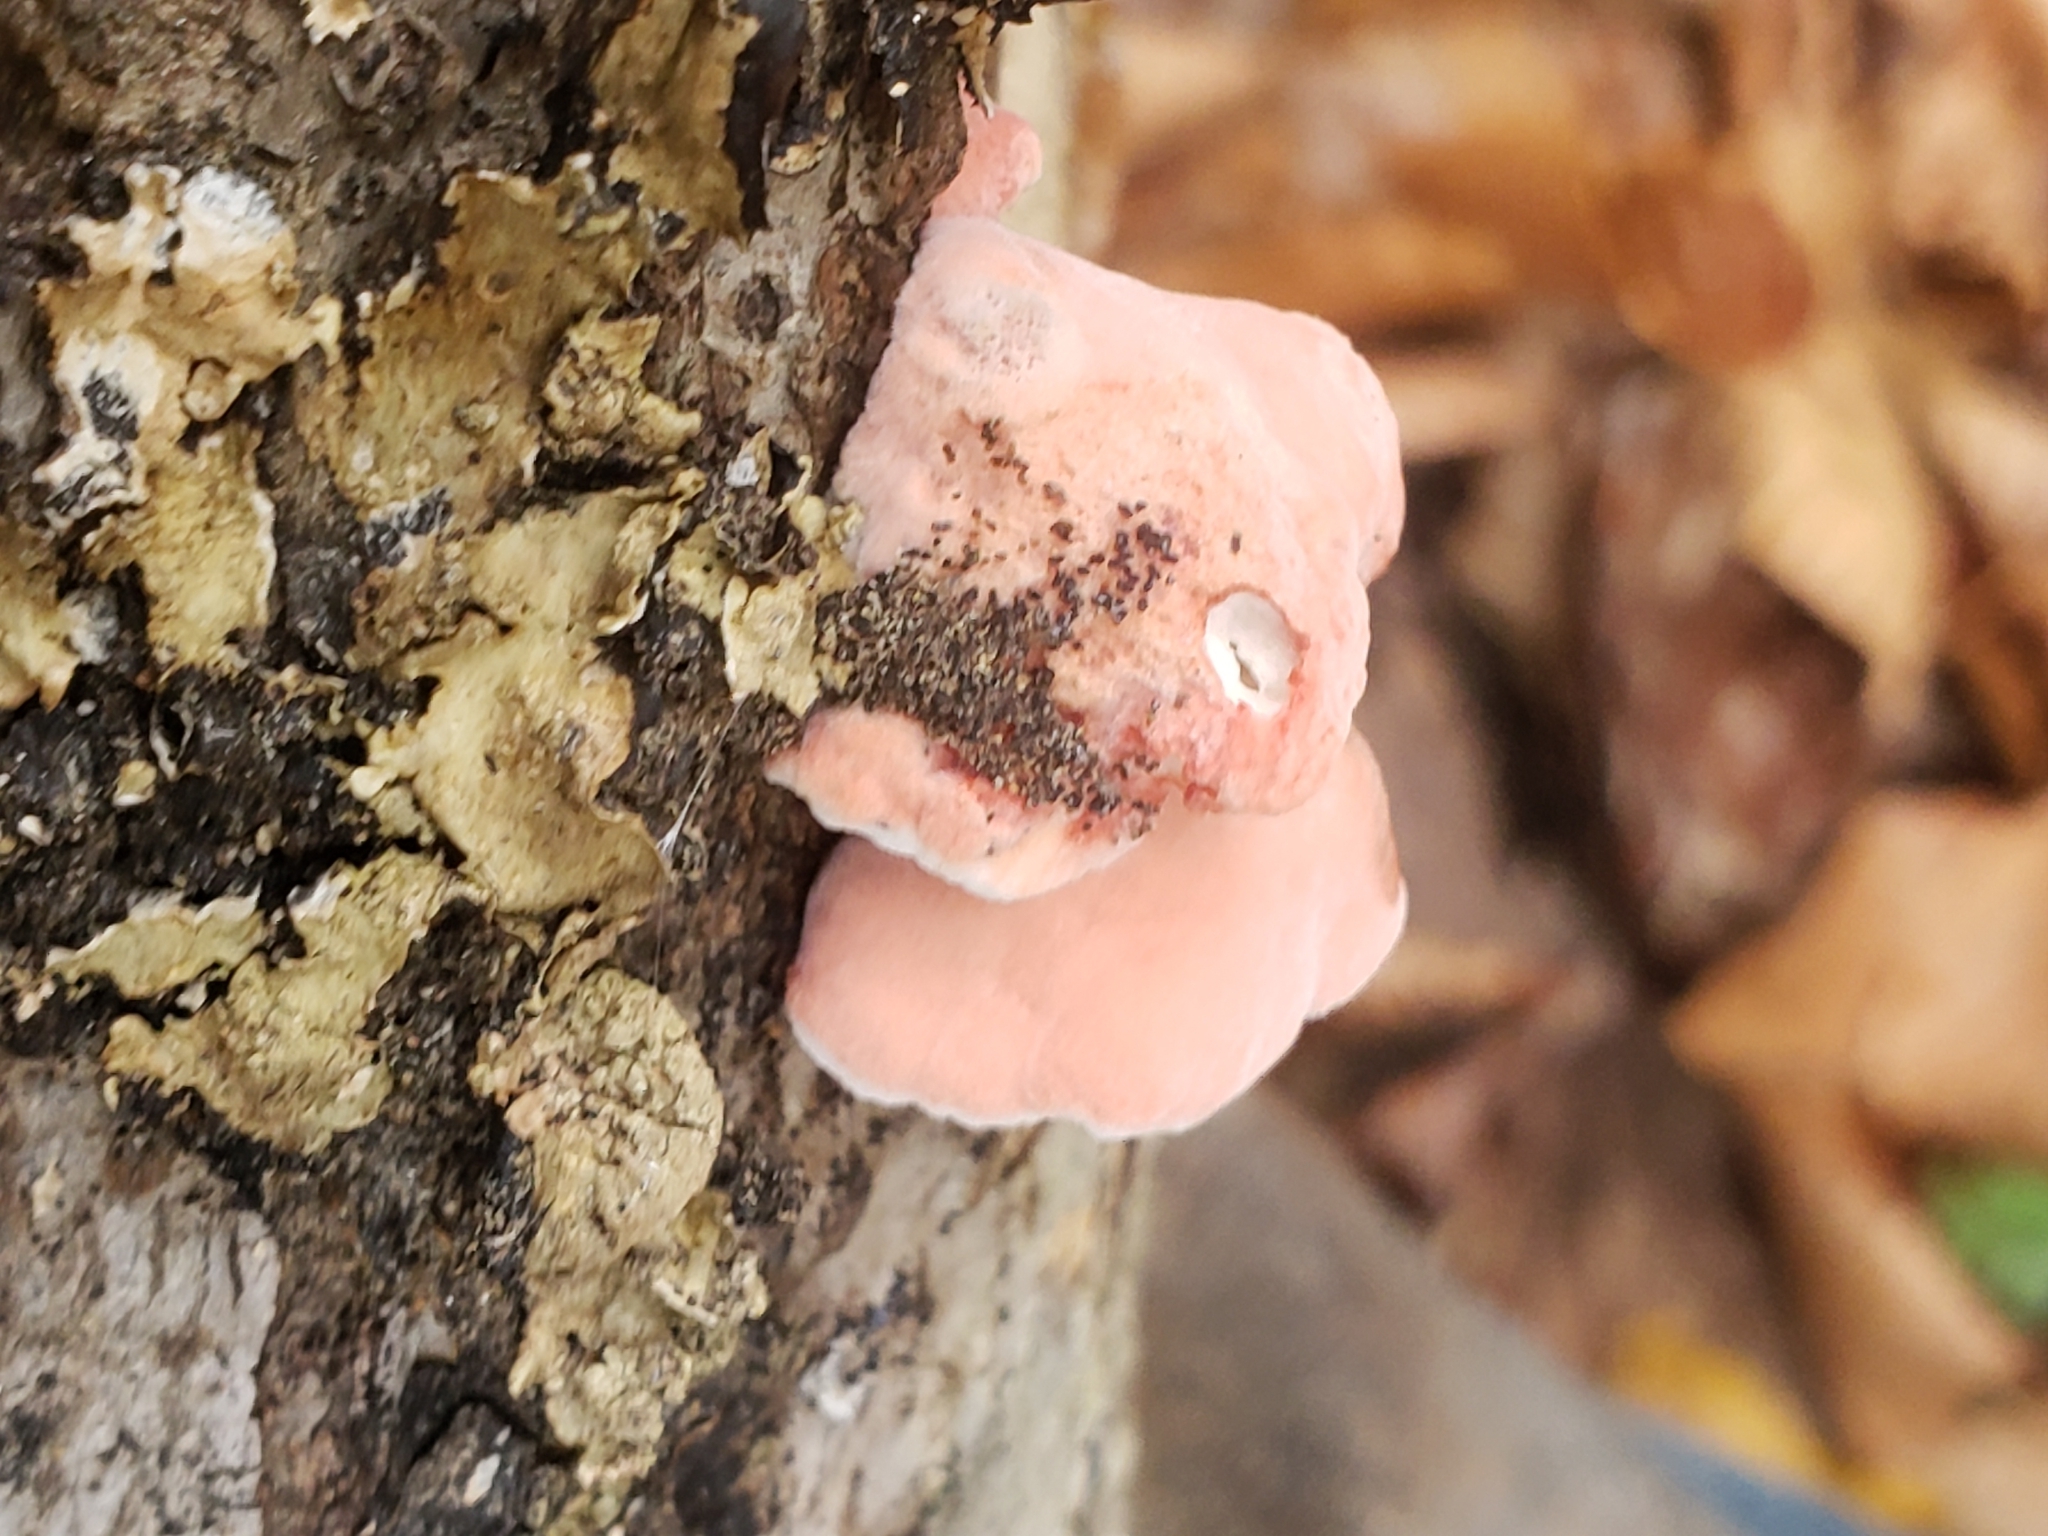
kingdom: Fungi
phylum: Basidiomycota
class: Agaricomycetes
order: Polyporales
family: Irpicaceae
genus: Byssomerulius
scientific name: Byssomerulius incarnatus
